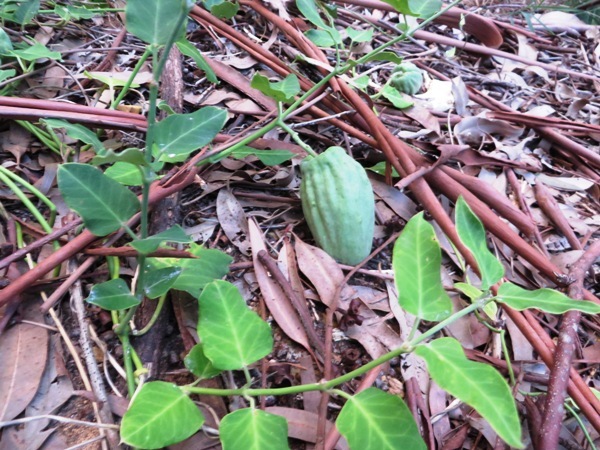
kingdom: Plantae
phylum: Tracheophyta
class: Magnoliopsida
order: Gentianales
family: Apocynaceae
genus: Araujia
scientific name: Araujia sericifera
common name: White bladderflower
